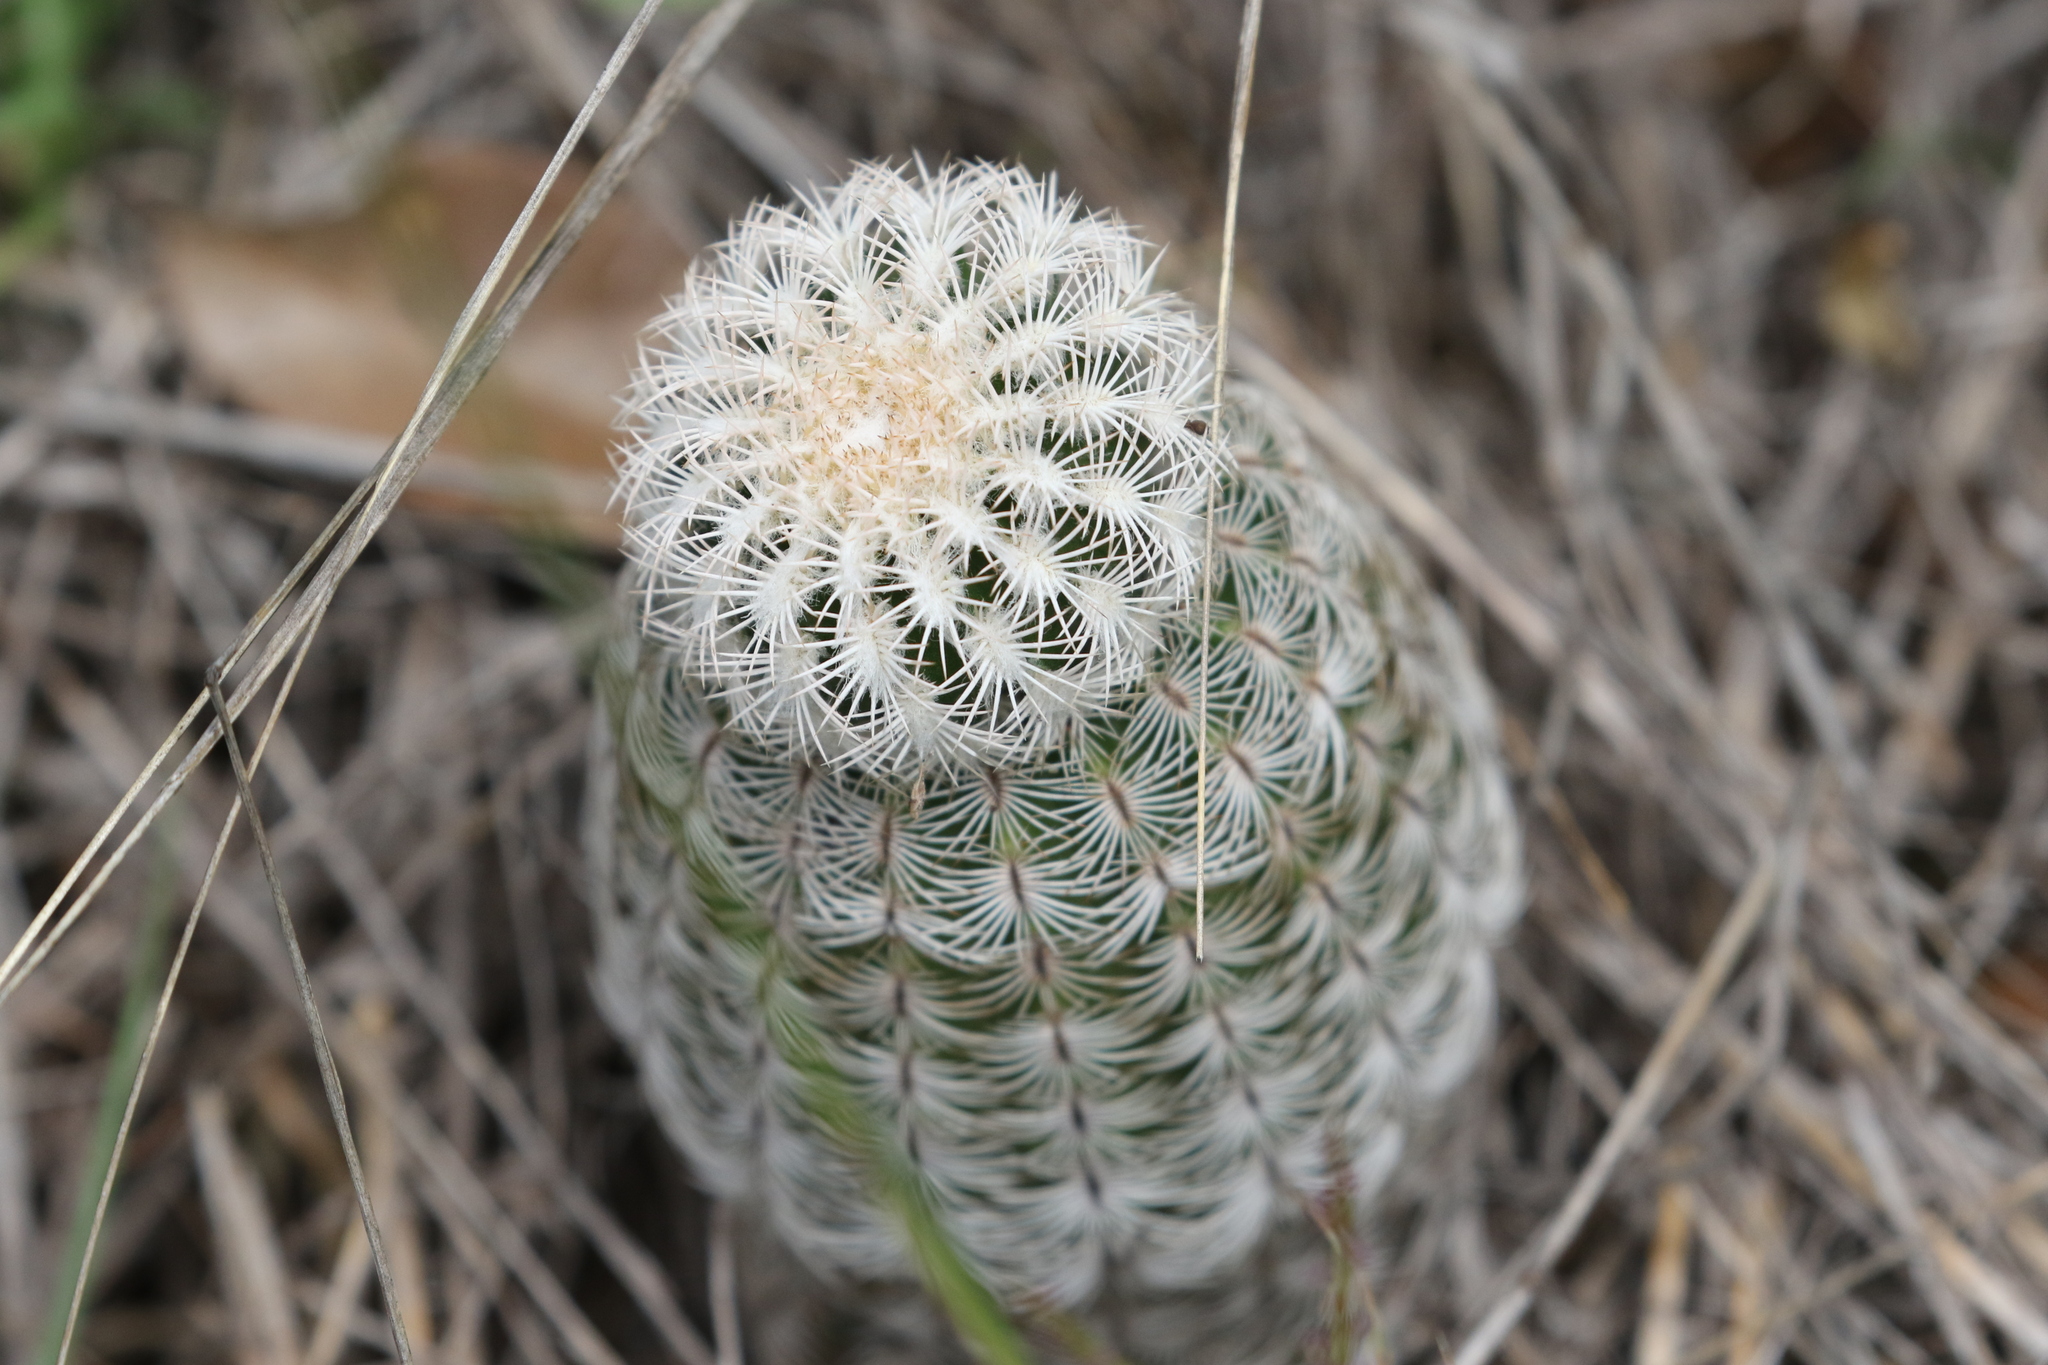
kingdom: Plantae
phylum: Tracheophyta
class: Magnoliopsida
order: Caryophyllales
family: Cactaceae
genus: Echinocereus
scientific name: Echinocereus reichenbachii
